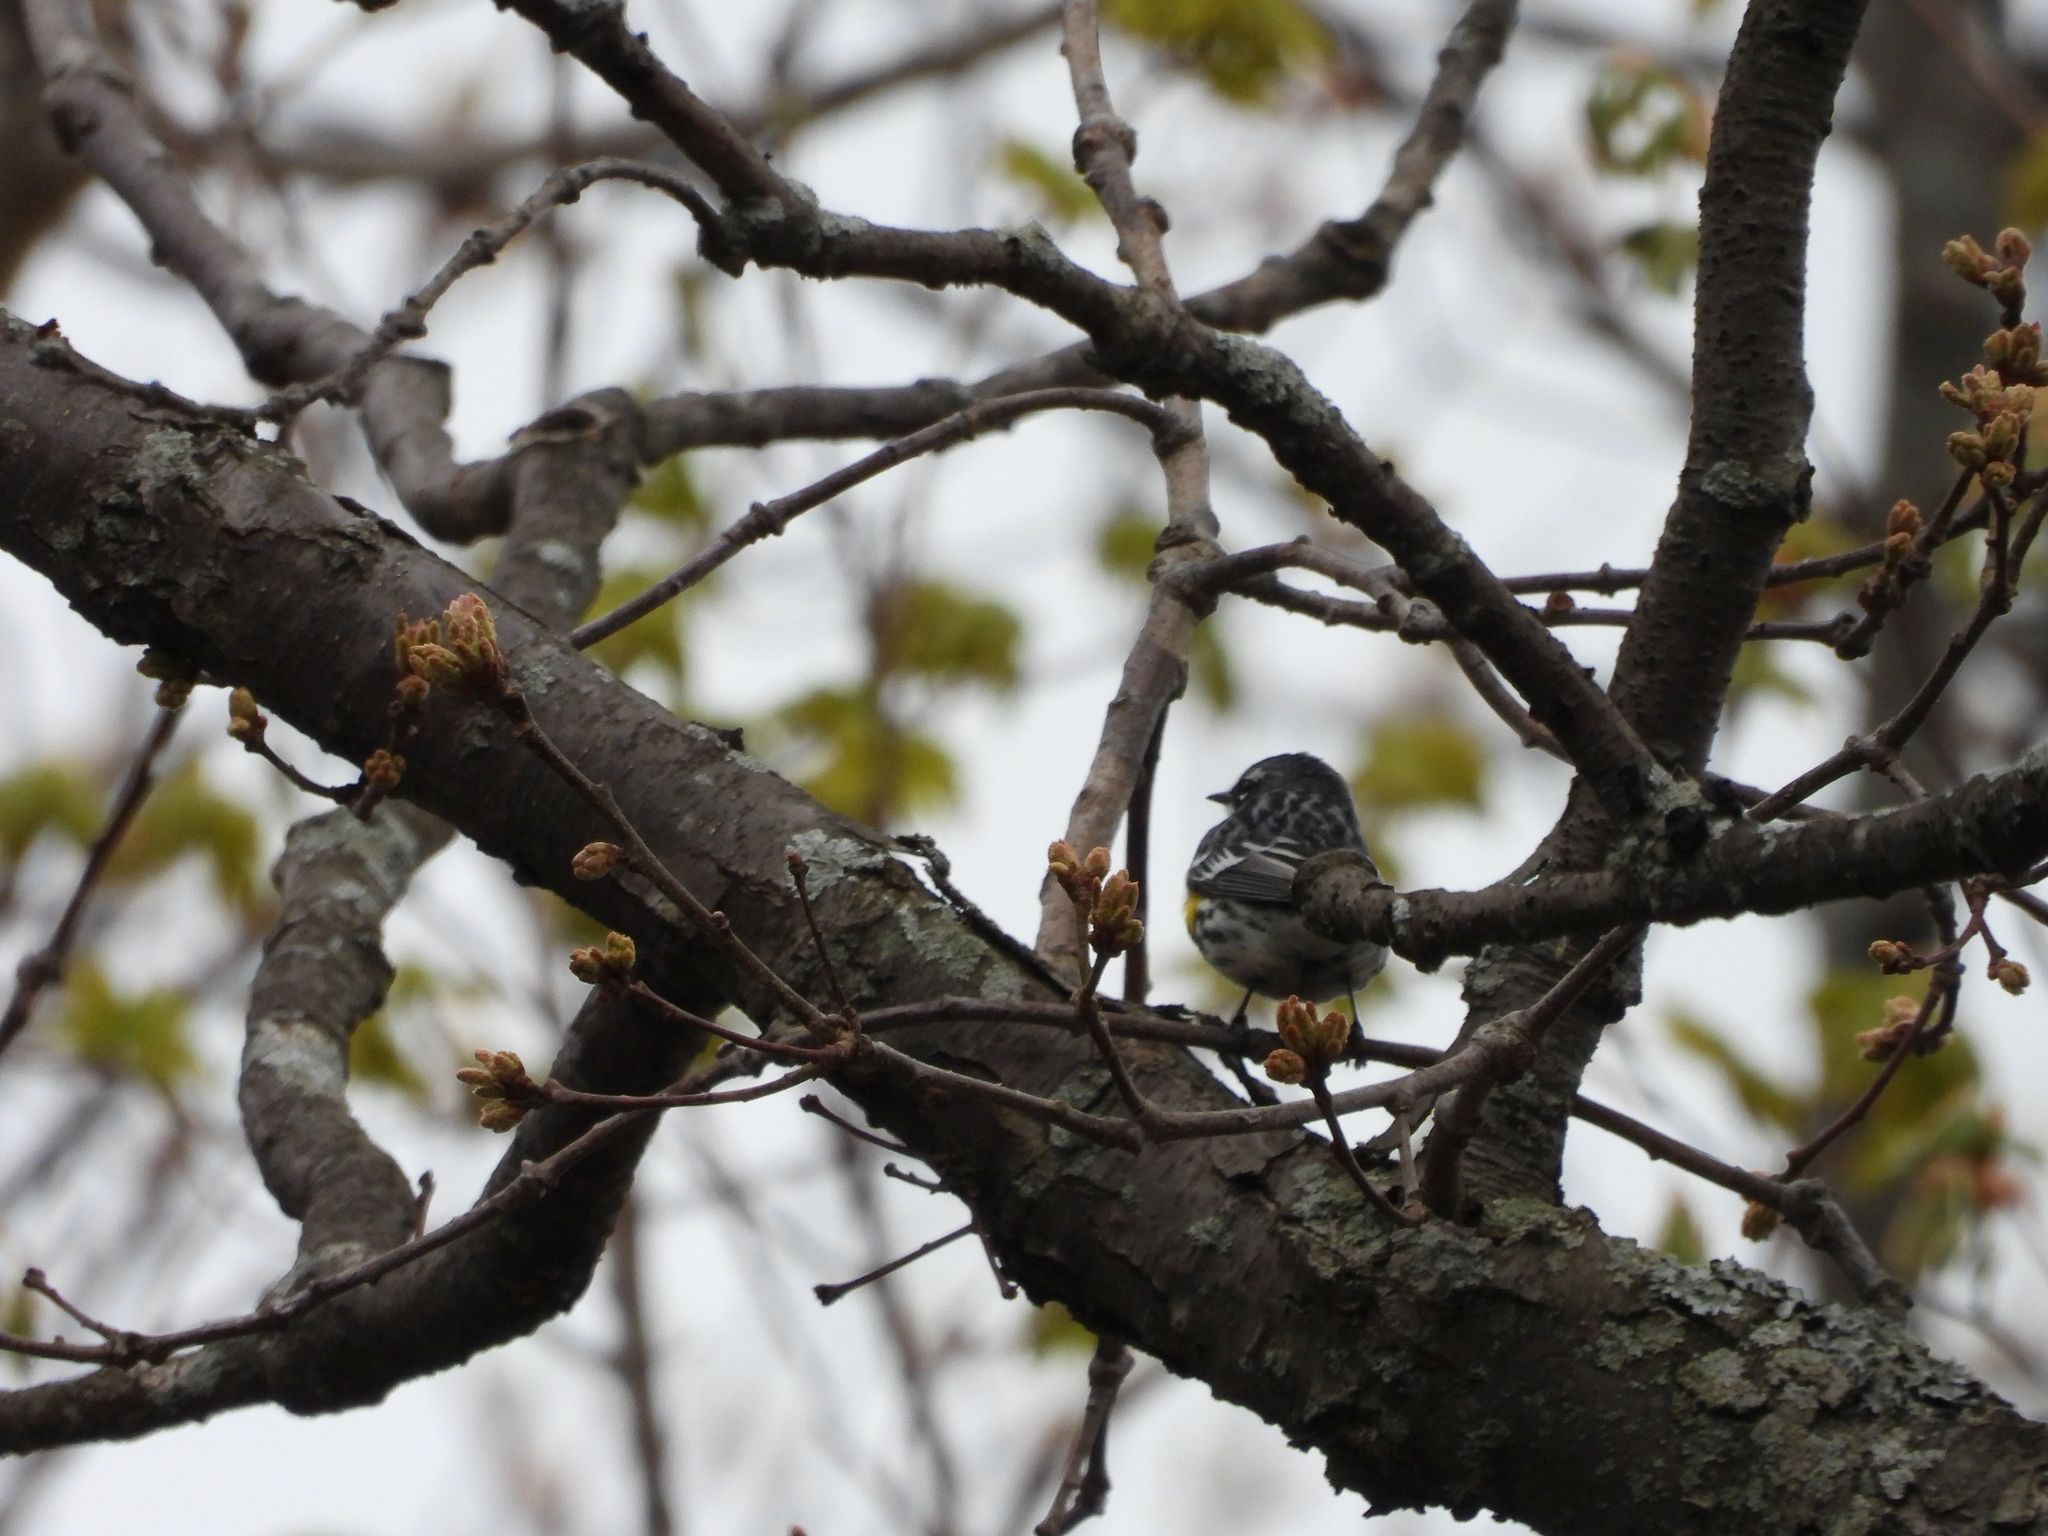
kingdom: Animalia
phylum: Chordata
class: Aves
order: Passeriformes
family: Parulidae
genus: Setophaga
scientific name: Setophaga coronata
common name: Myrtle warbler
